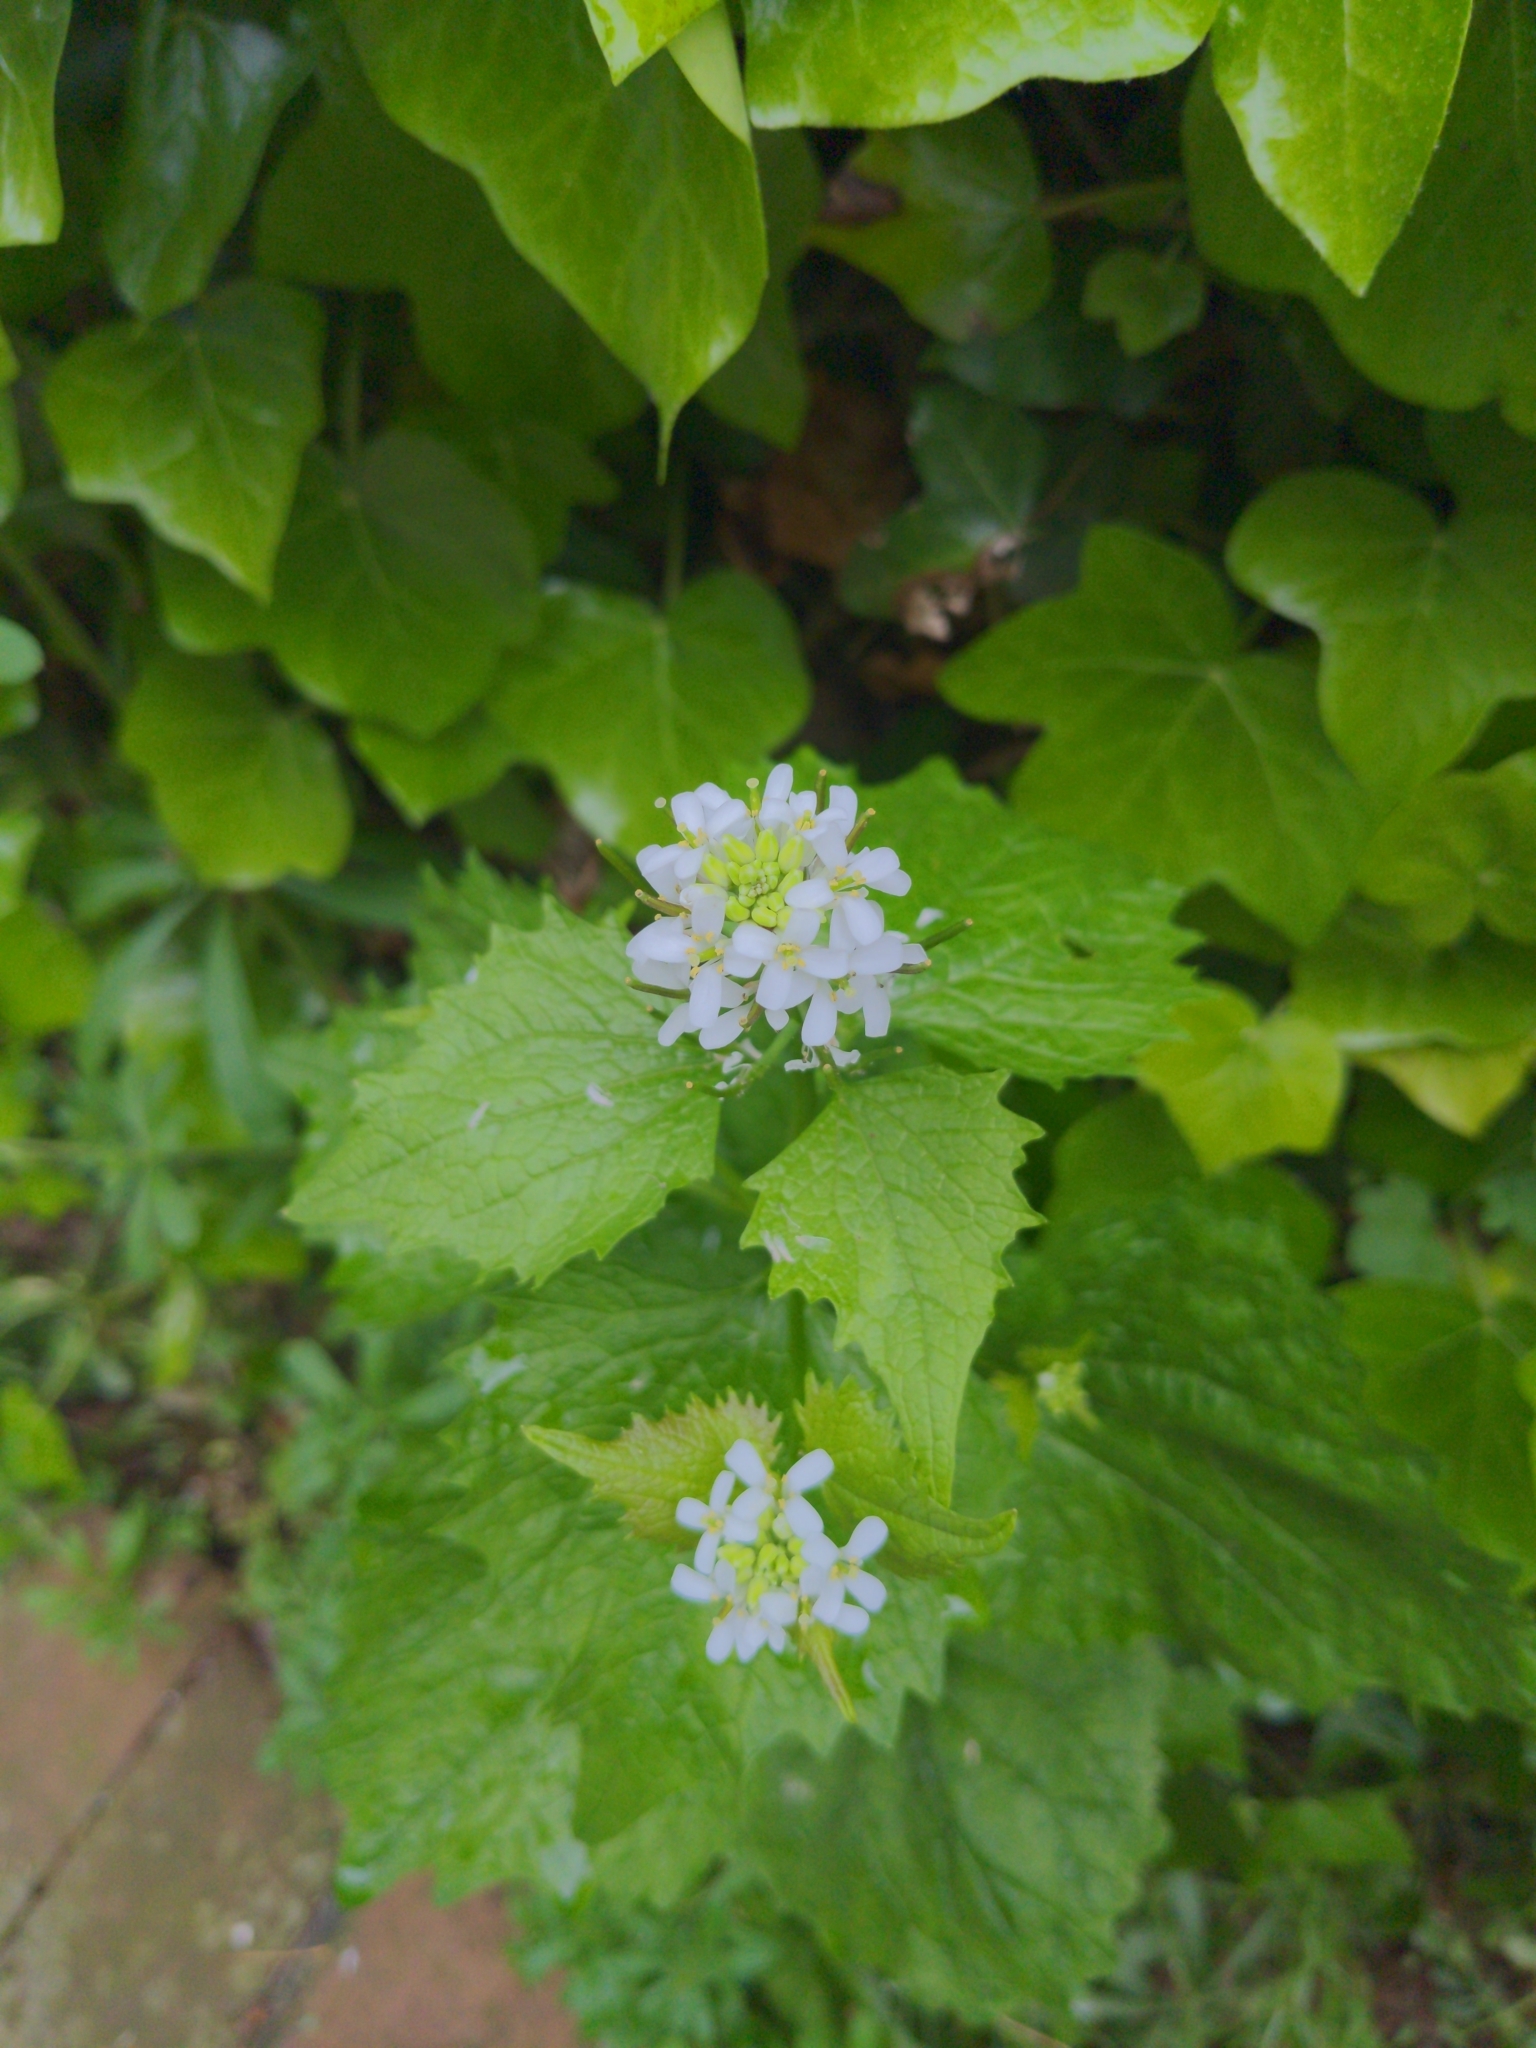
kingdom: Plantae
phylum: Tracheophyta
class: Magnoliopsida
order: Brassicales
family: Brassicaceae
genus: Alliaria
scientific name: Alliaria petiolata
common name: Garlic mustard
